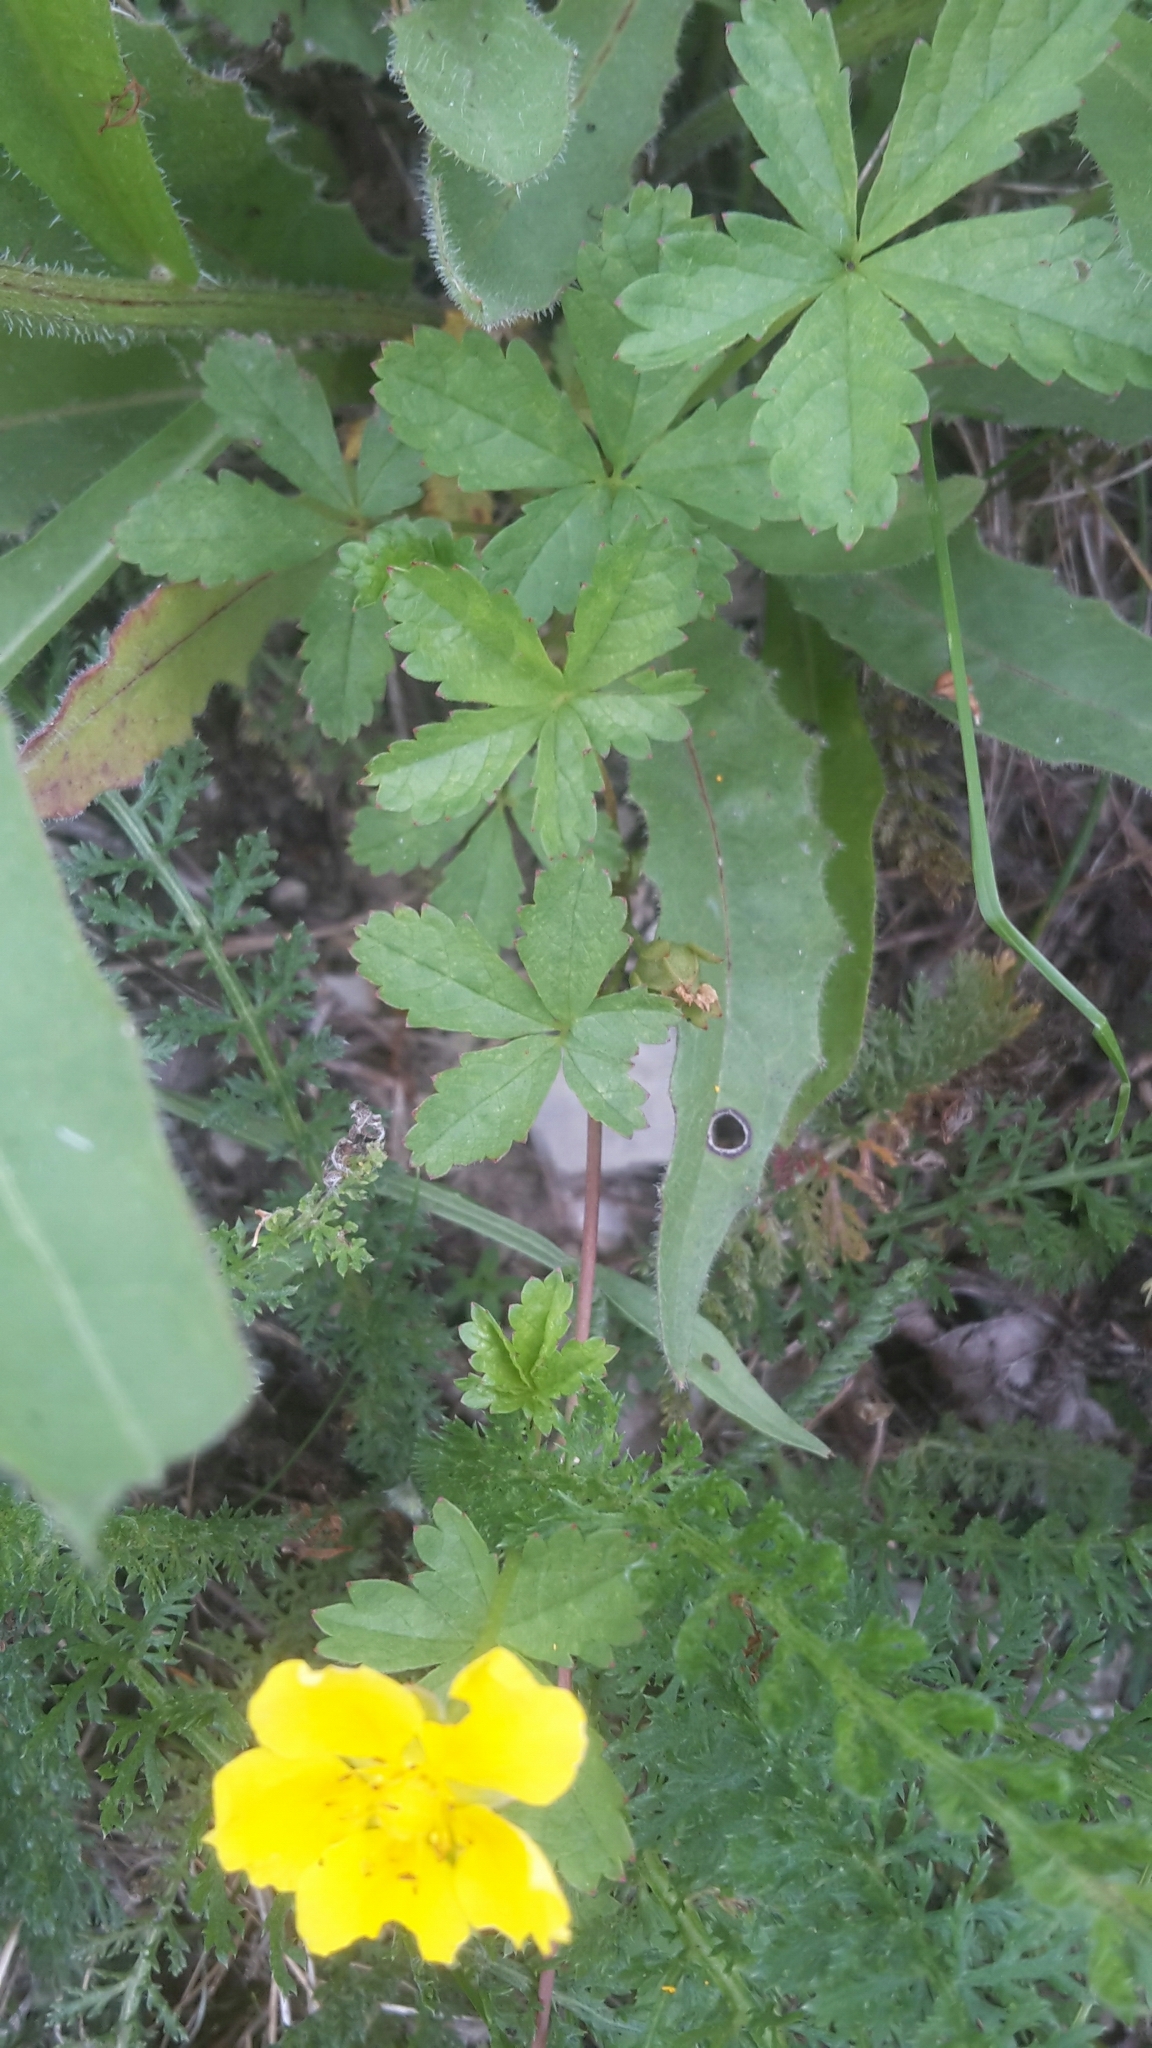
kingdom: Plantae
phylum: Tracheophyta
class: Magnoliopsida
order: Rosales
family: Rosaceae
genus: Potentilla
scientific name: Potentilla reptans
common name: Creeping cinquefoil
